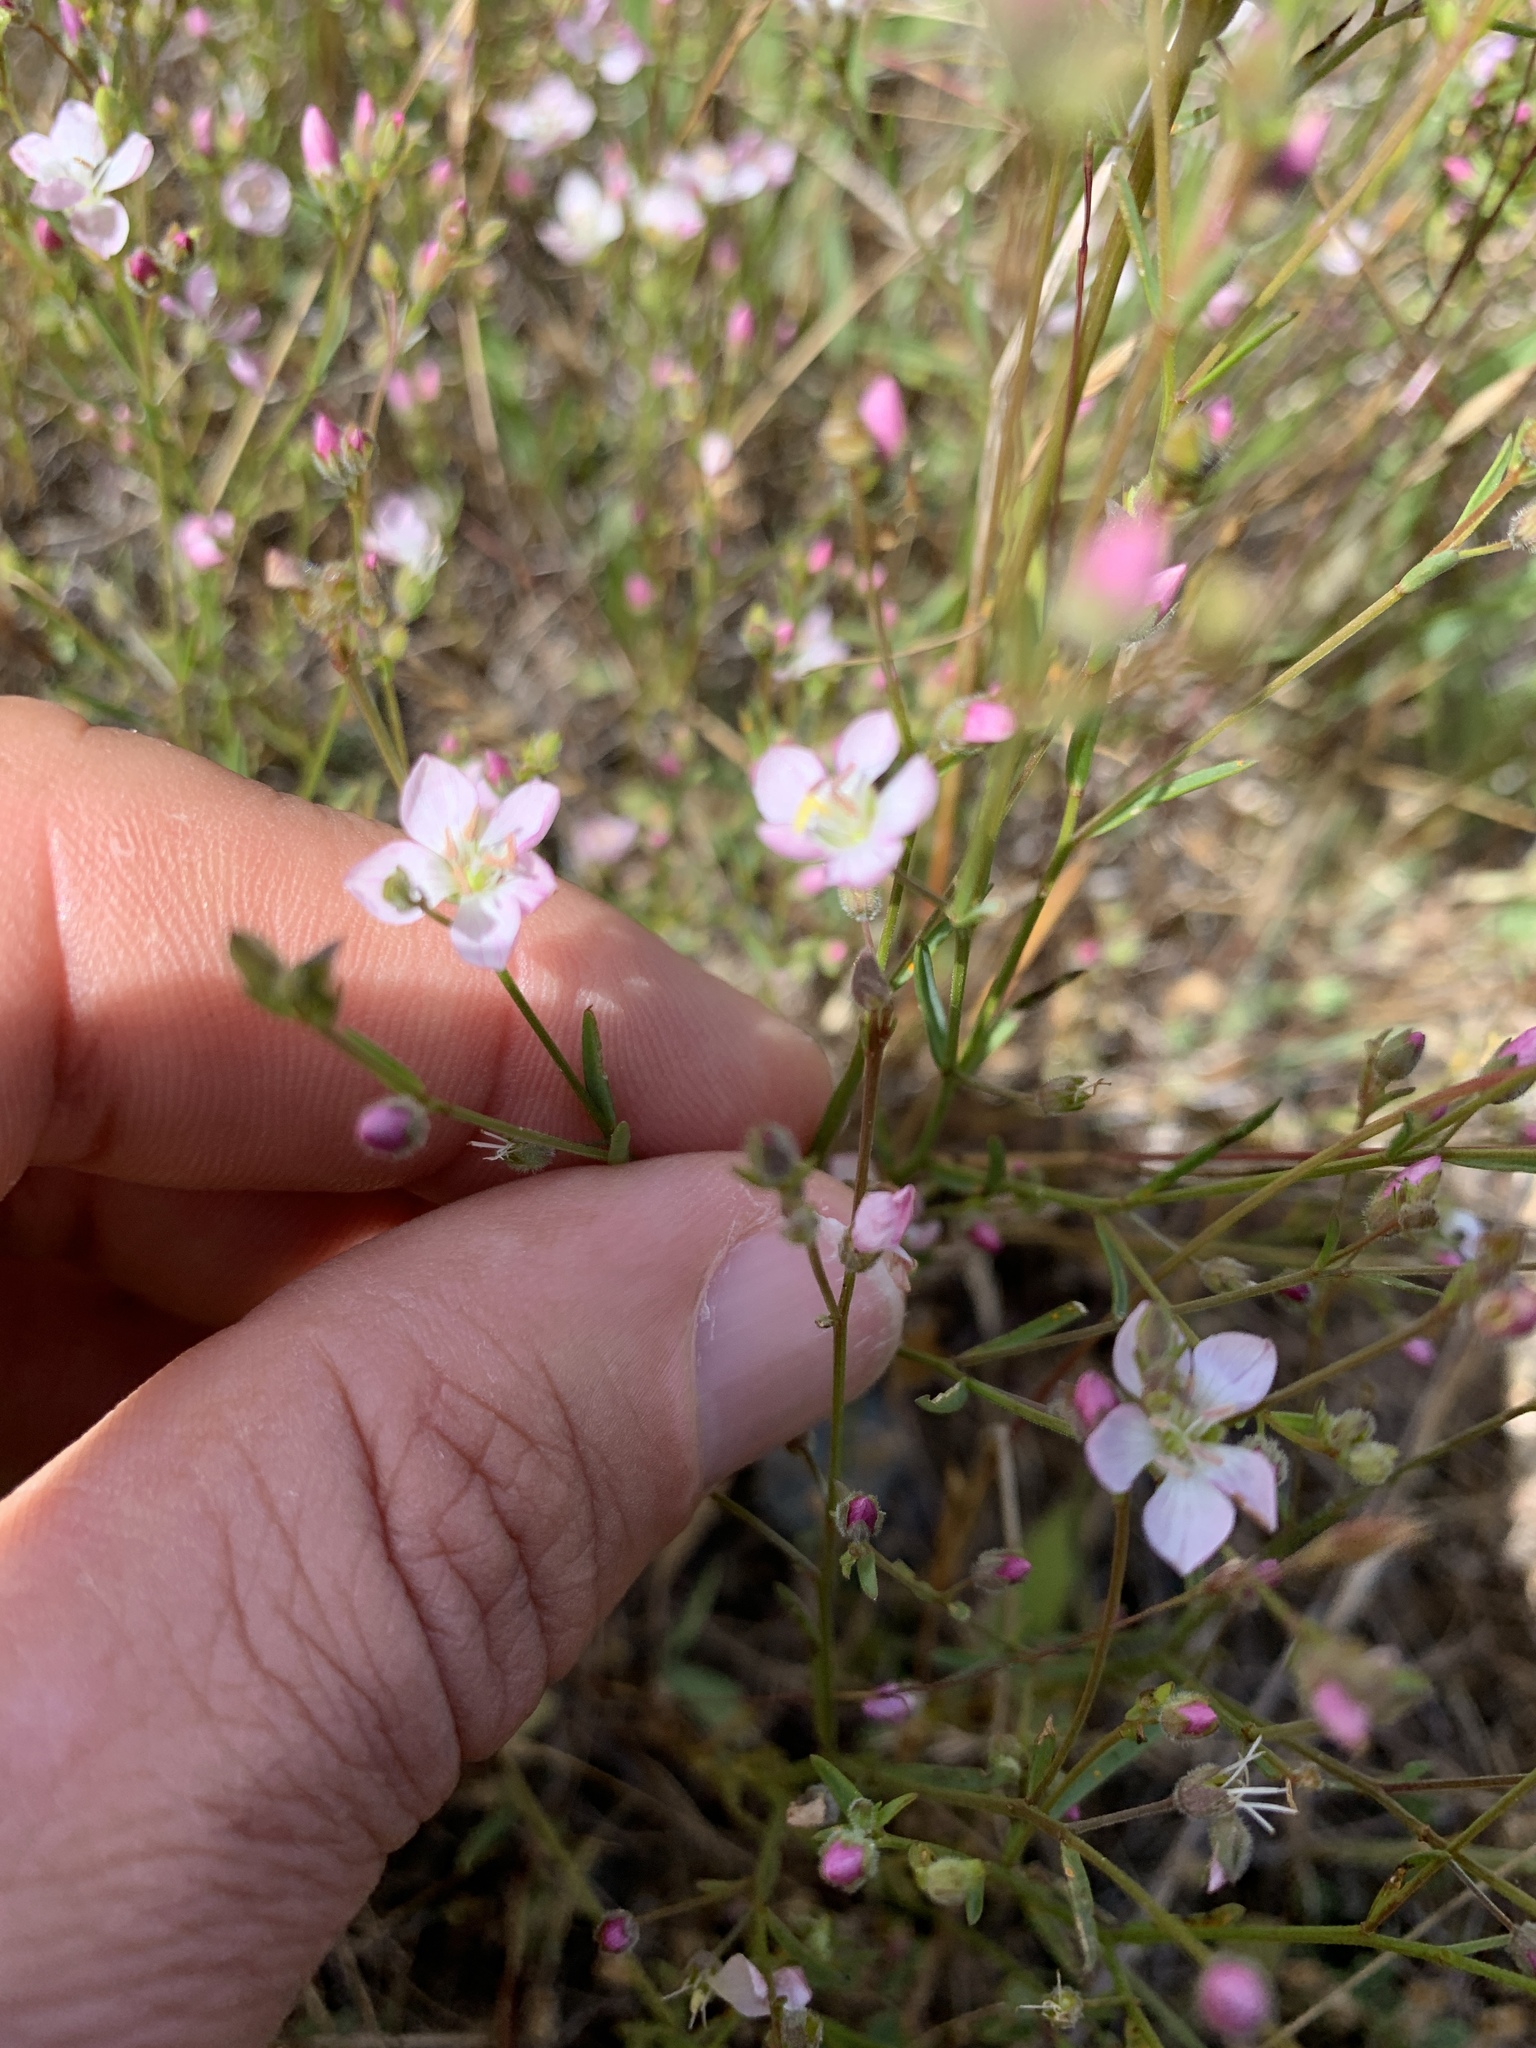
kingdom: Plantae
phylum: Tracheophyta
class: Magnoliopsida
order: Malpighiales
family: Linaceae
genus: Hesperolinon
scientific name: Hesperolinon congestum
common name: Marin dwarf-flax
